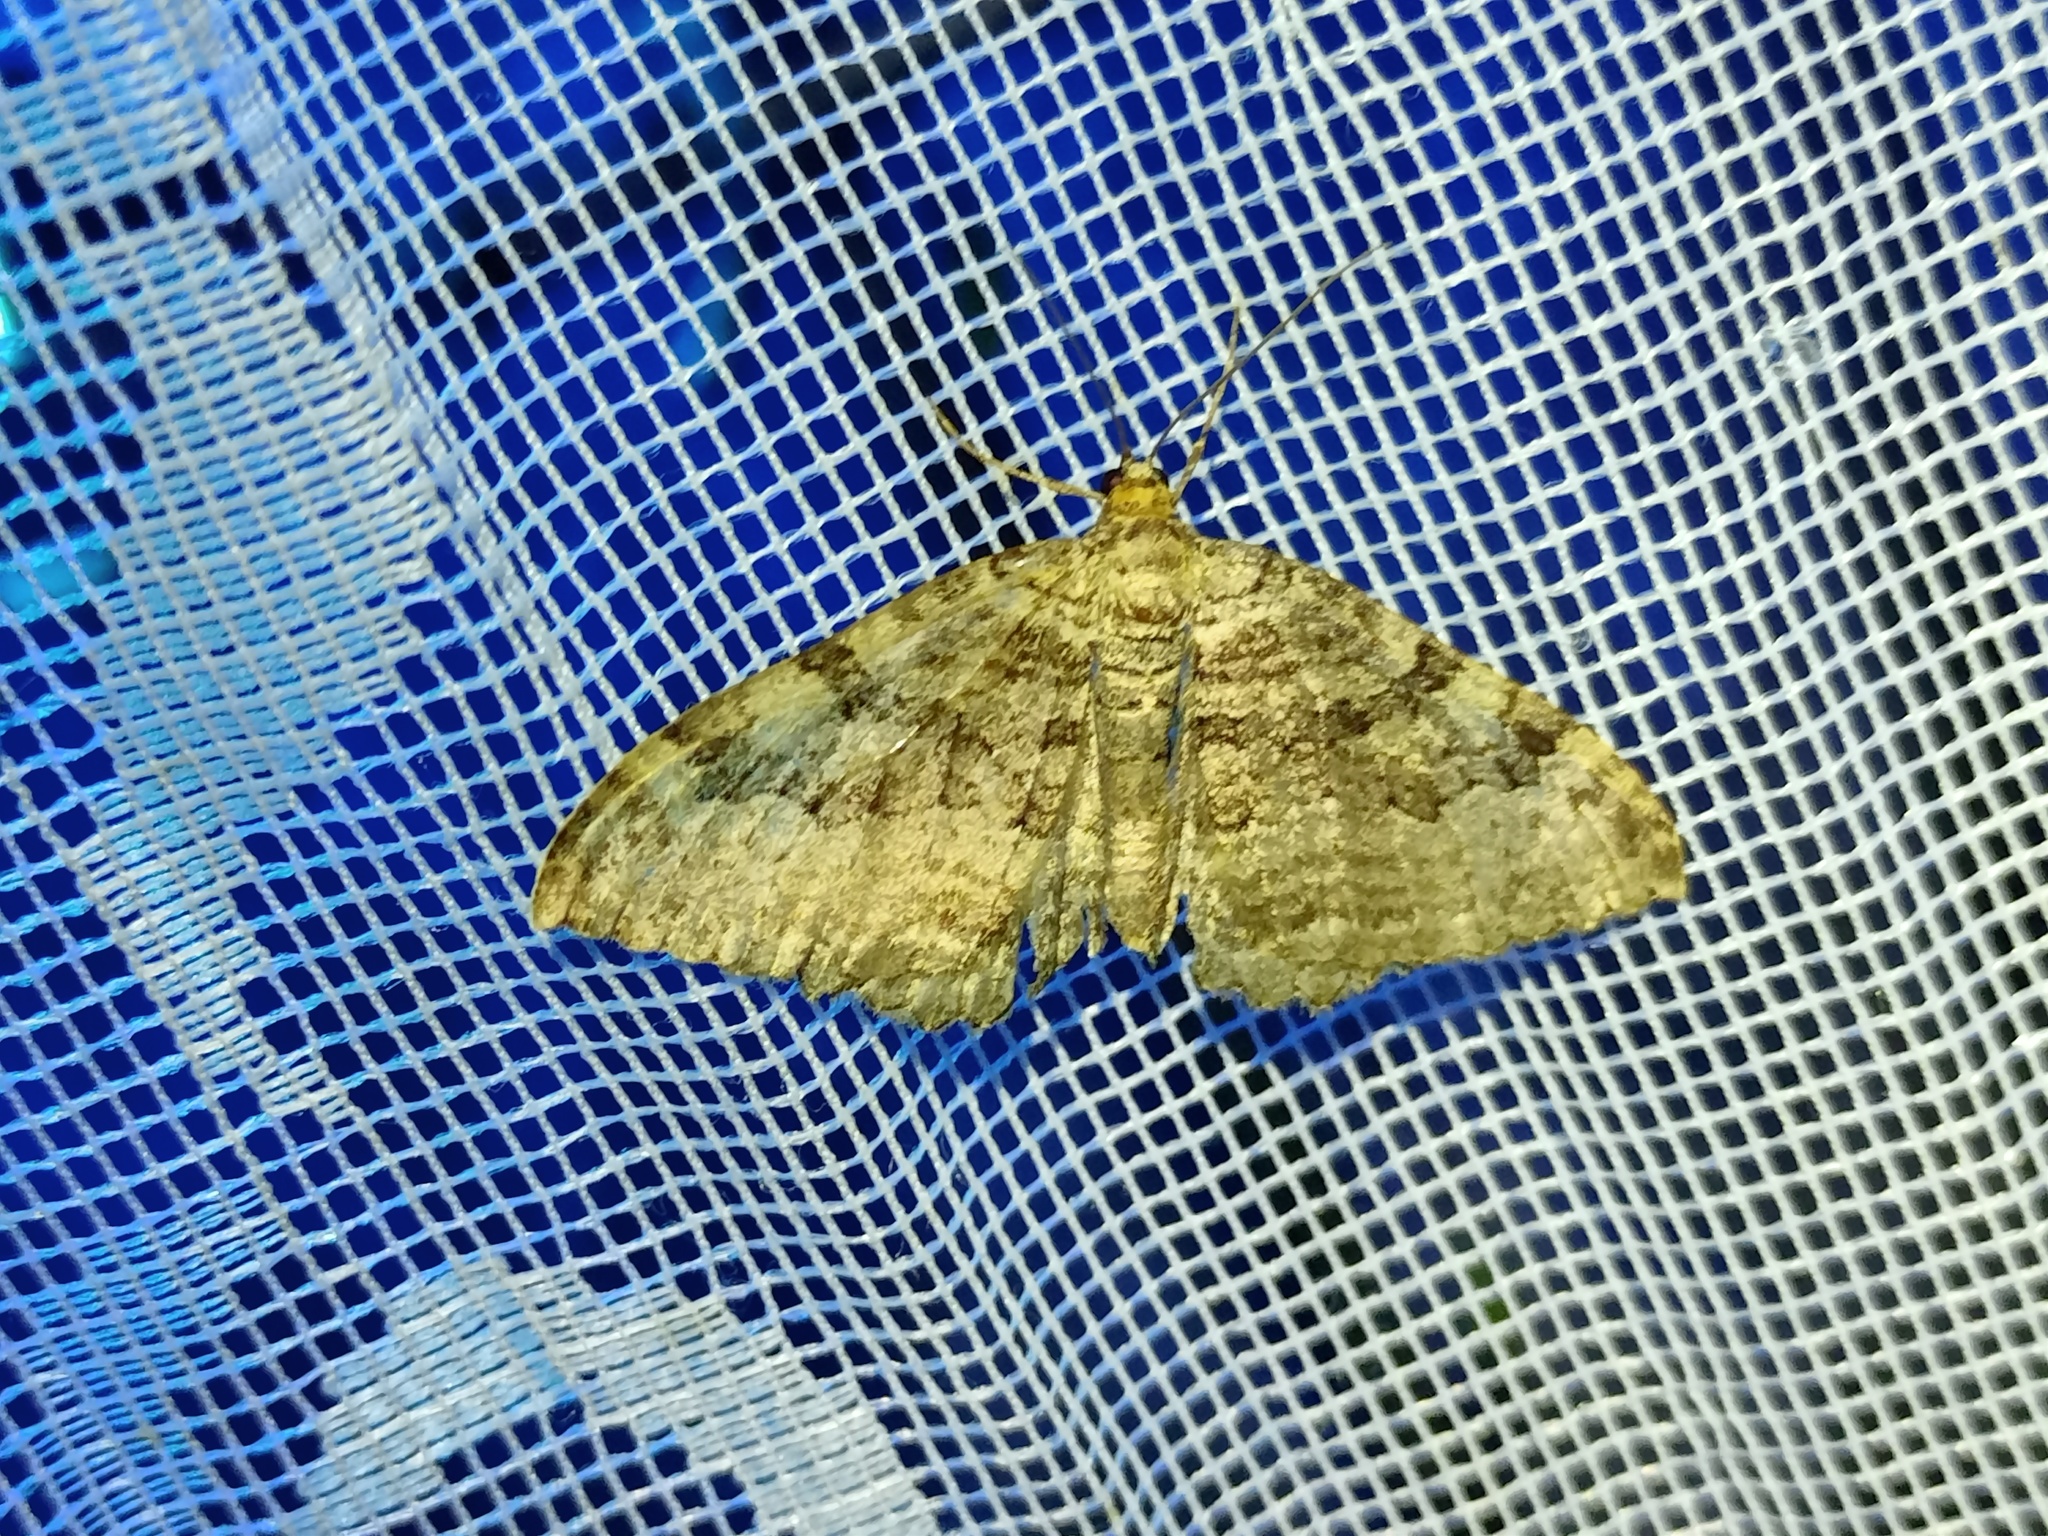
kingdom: Animalia
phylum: Arthropoda
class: Insecta
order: Lepidoptera
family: Geometridae
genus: Rheumaptera
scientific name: Rheumaptera Hydria cervinalis
